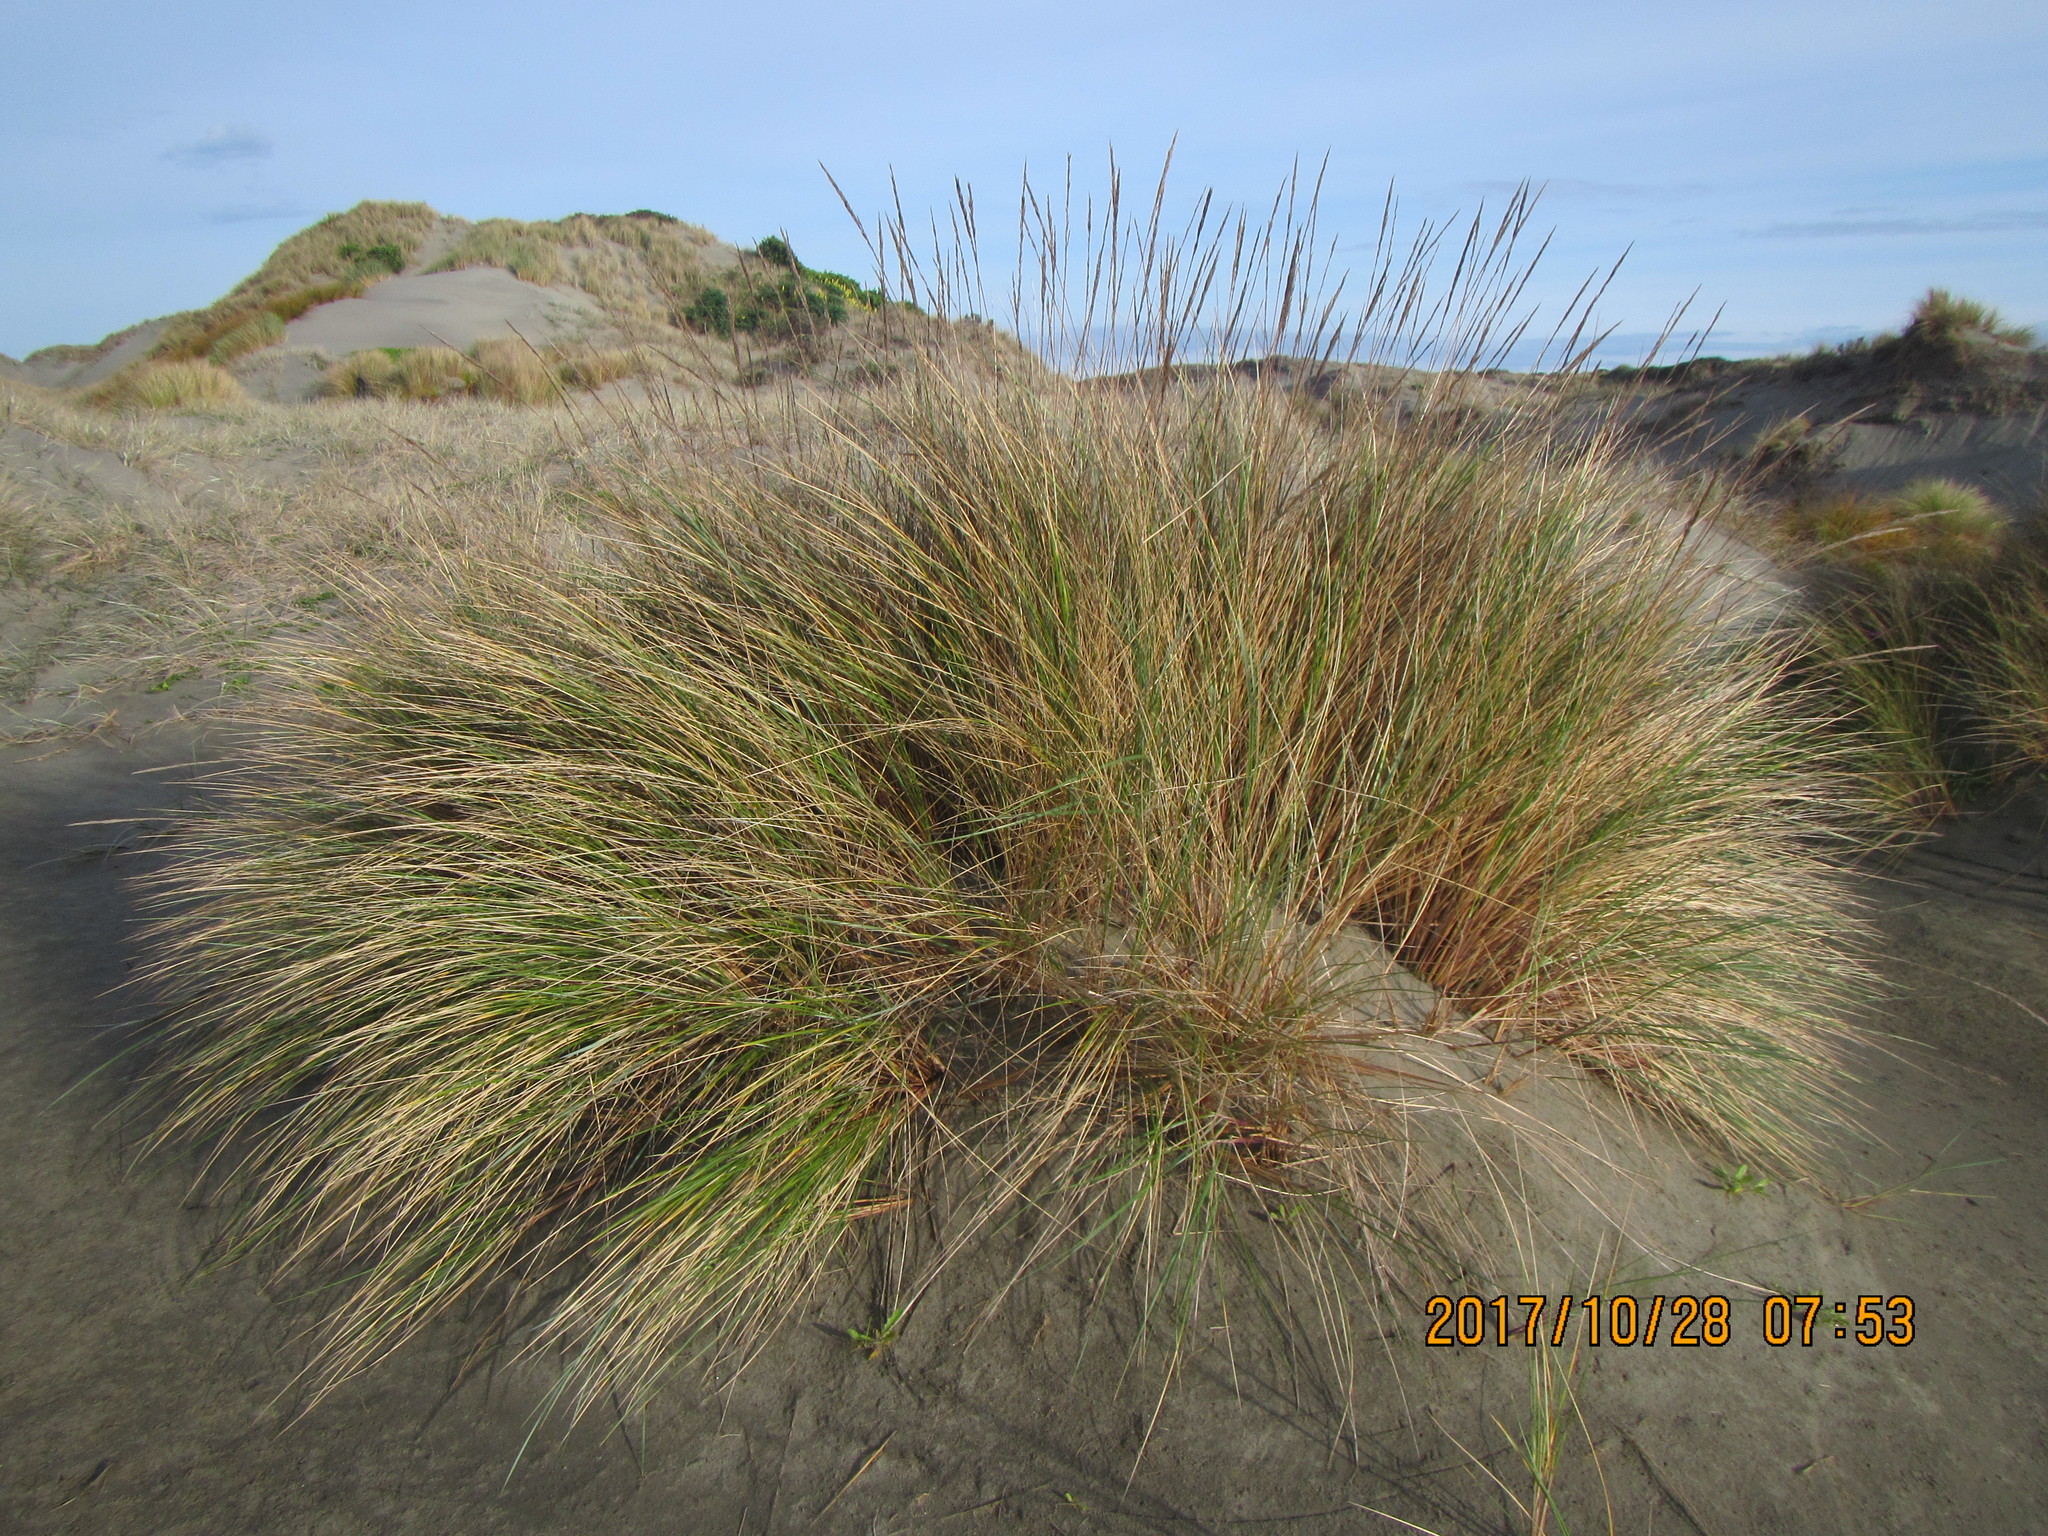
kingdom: Plantae
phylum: Tracheophyta
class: Liliopsida
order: Poales
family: Poaceae
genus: Calamagrostis
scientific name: Calamagrostis arenaria
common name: European beachgrass
